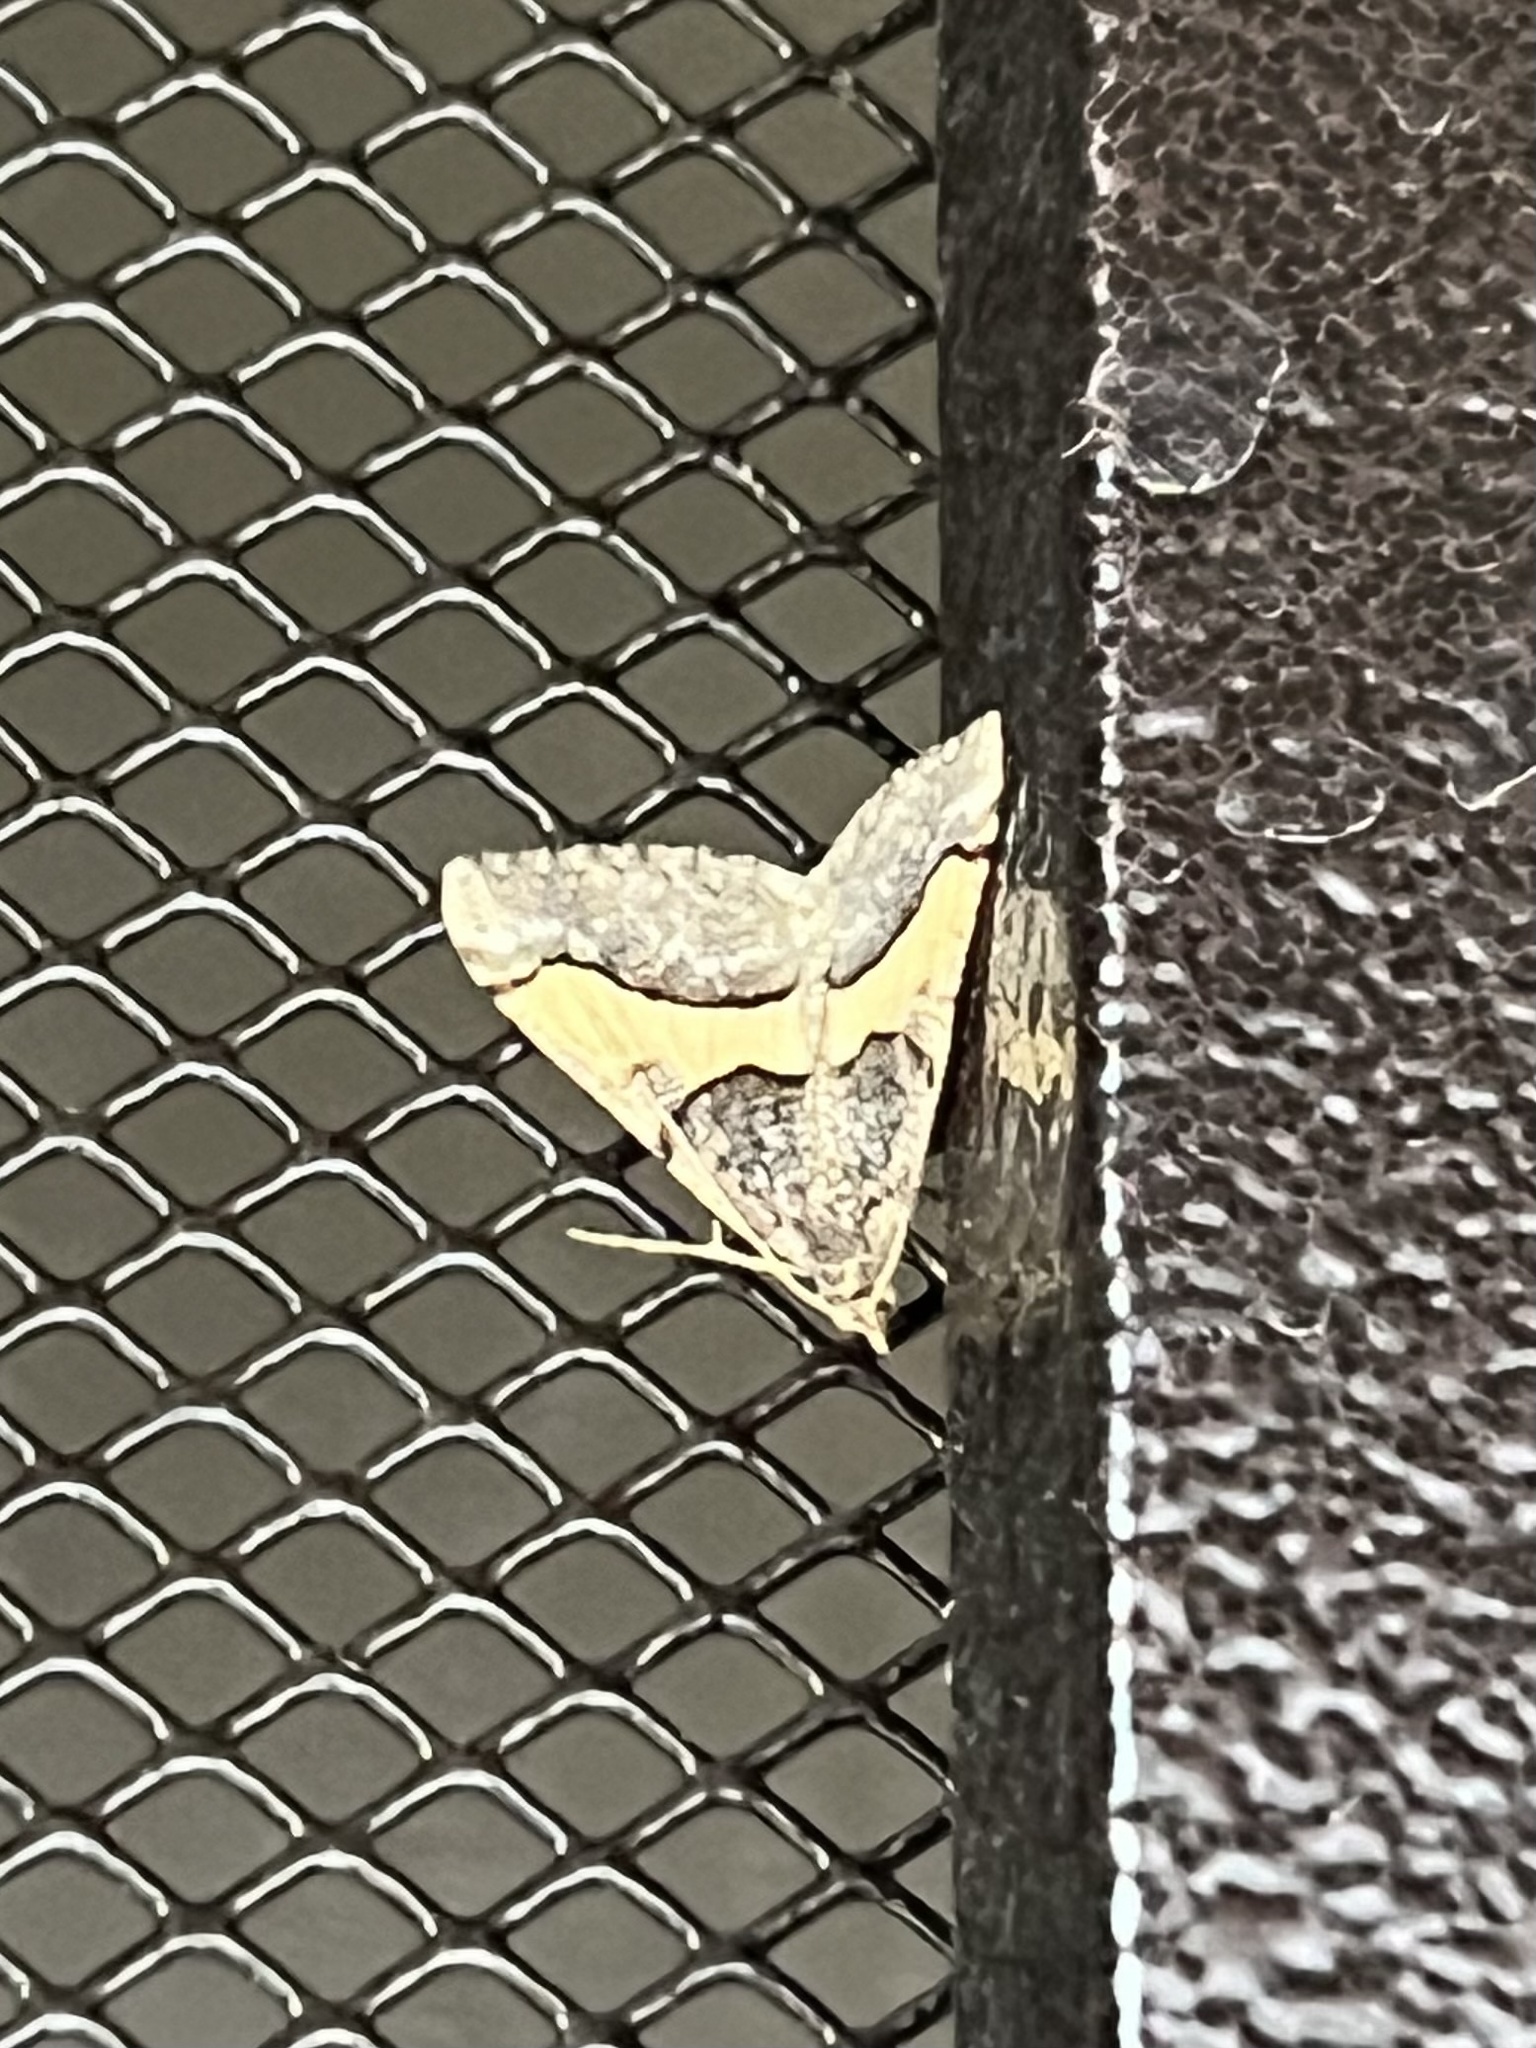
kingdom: Animalia
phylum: Arthropoda
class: Insecta
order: Lepidoptera
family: Geometridae
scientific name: Geometridae
